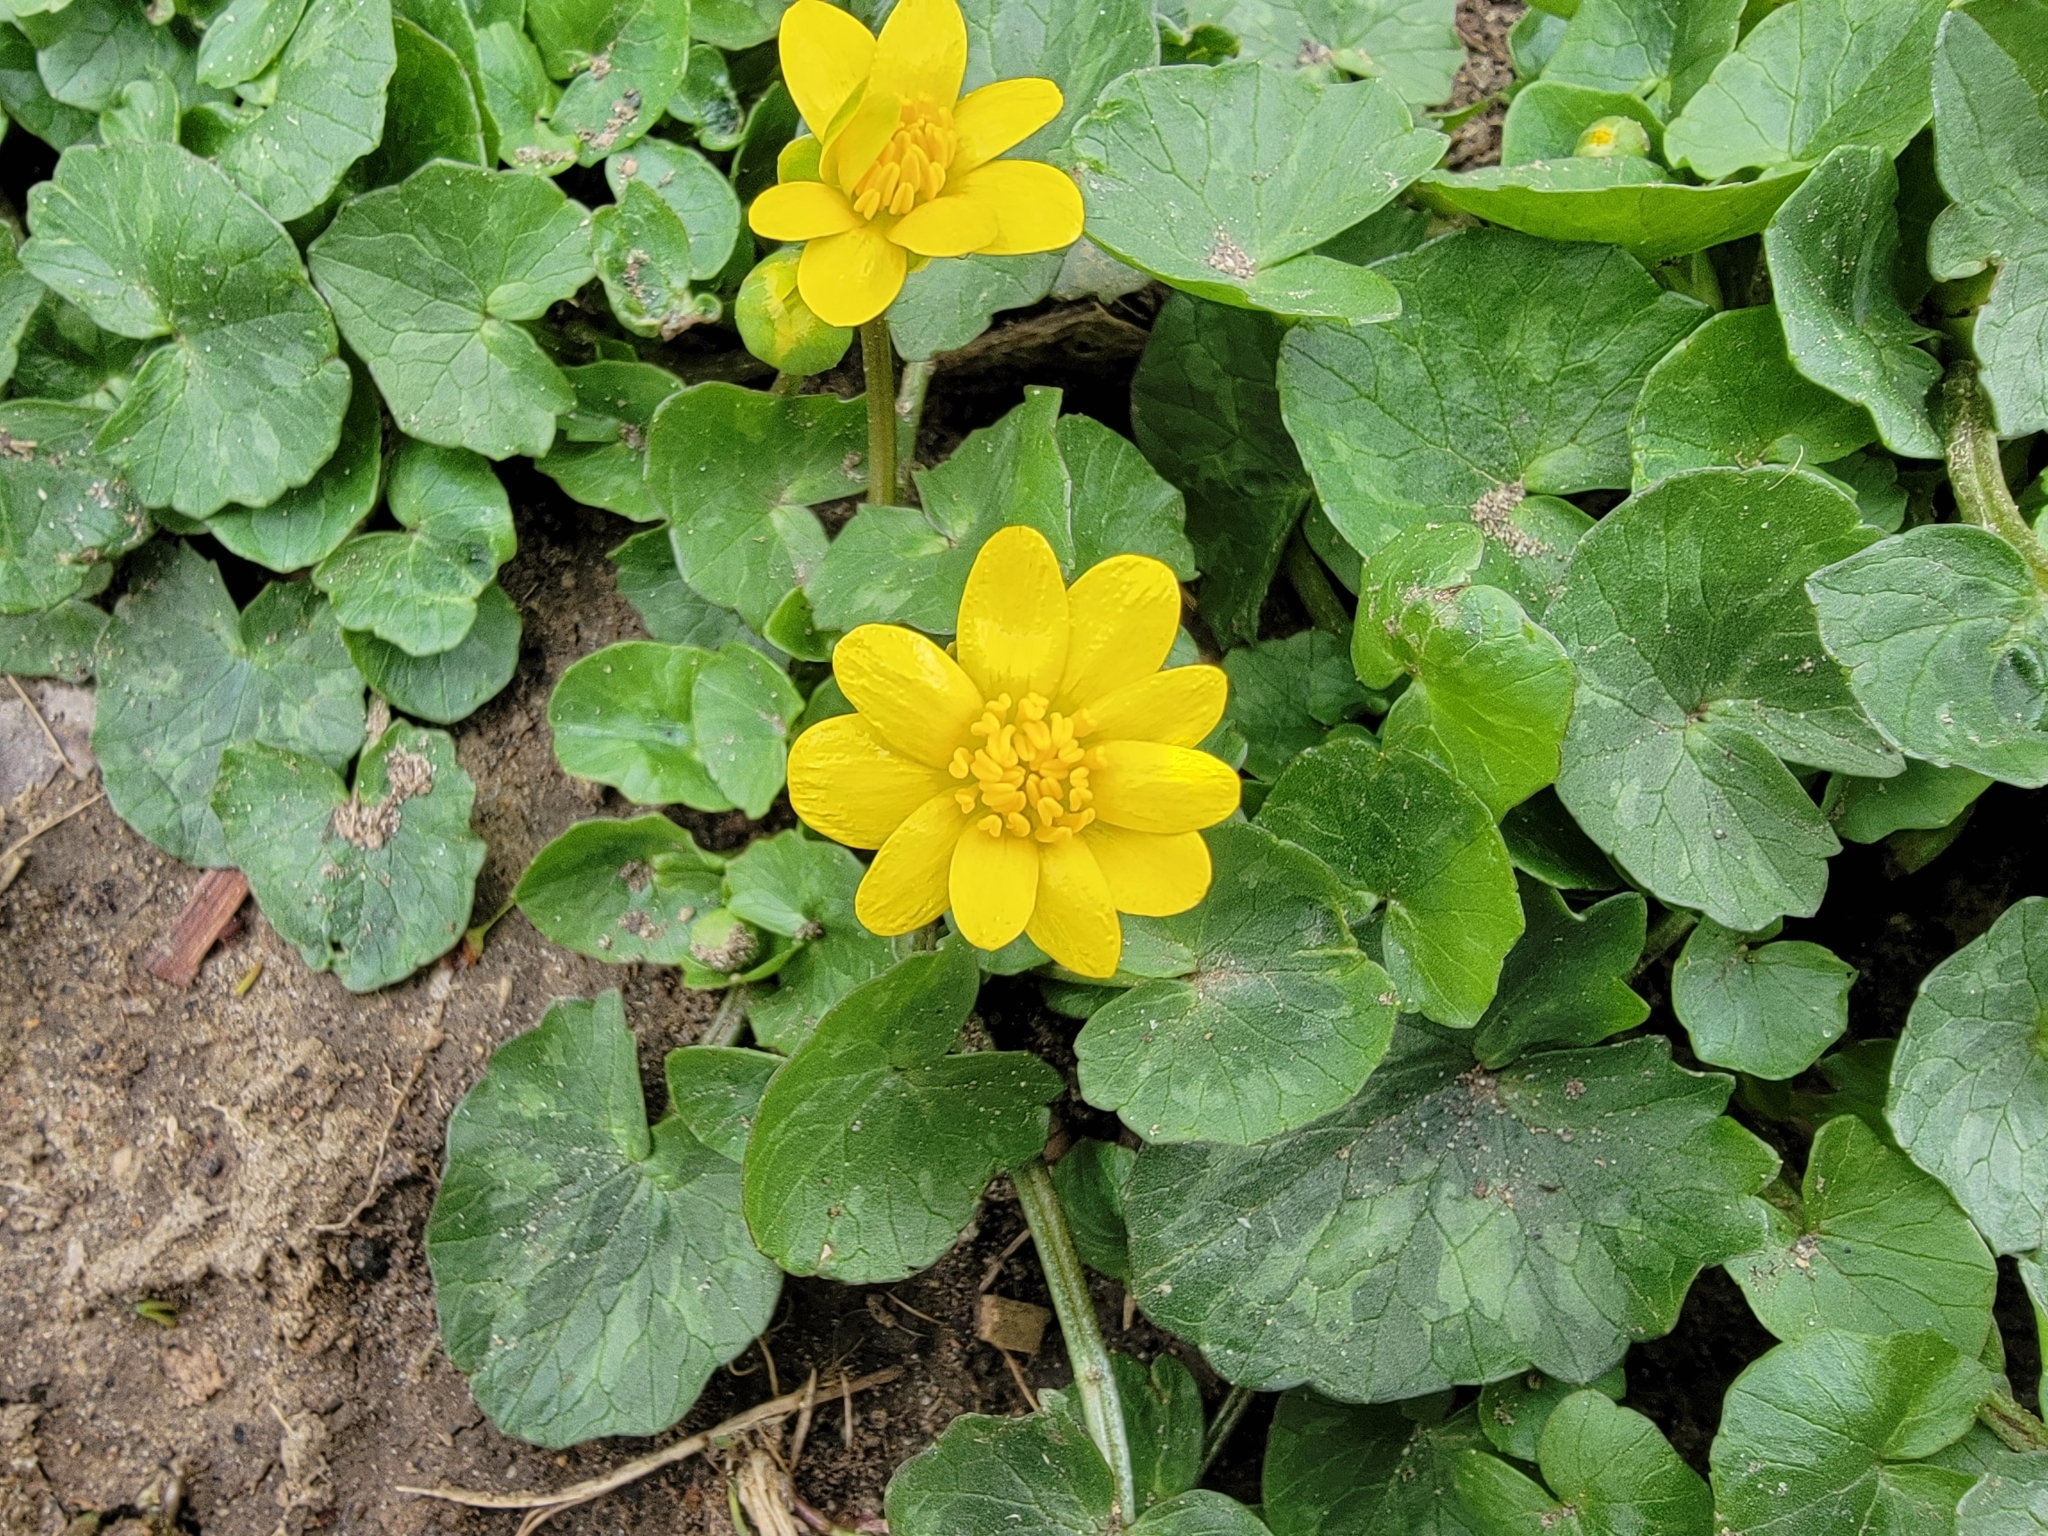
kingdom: Plantae
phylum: Tracheophyta
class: Magnoliopsida
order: Ranunculales
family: Ranunculaceae
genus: Ficaria
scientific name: Ficaria verna
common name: Lesser celandine
